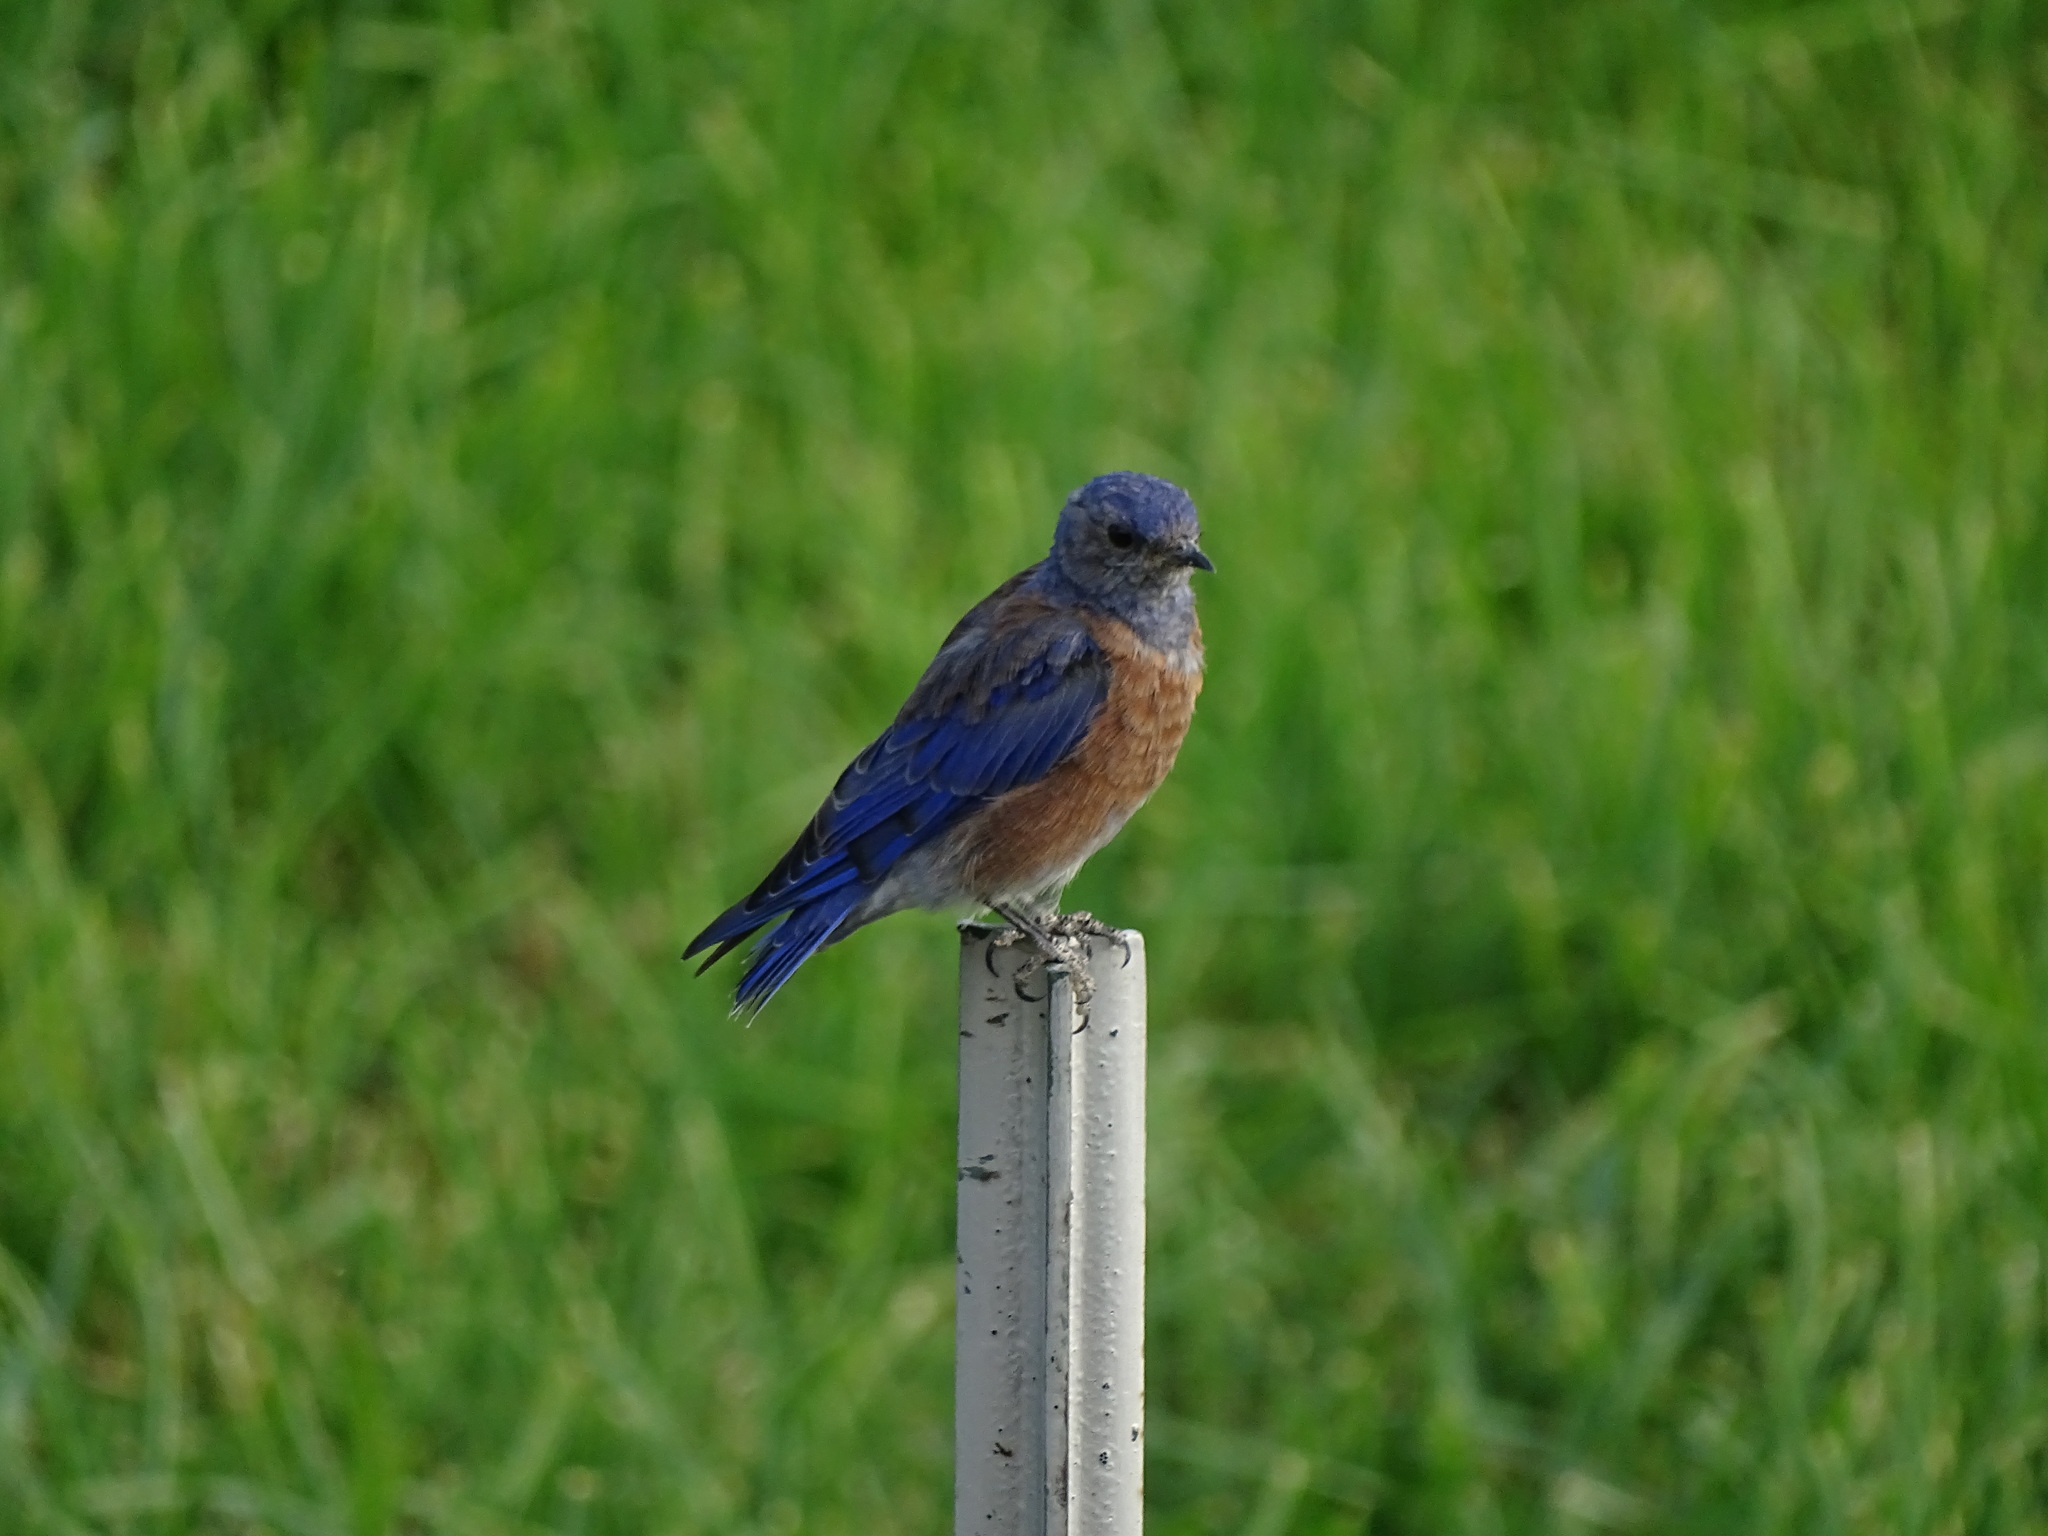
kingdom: Animalia
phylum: Chordata
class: Aves
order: Passeriformes
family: Turdidae
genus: Sialia
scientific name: Sialia mexicana
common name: Western bluebird
